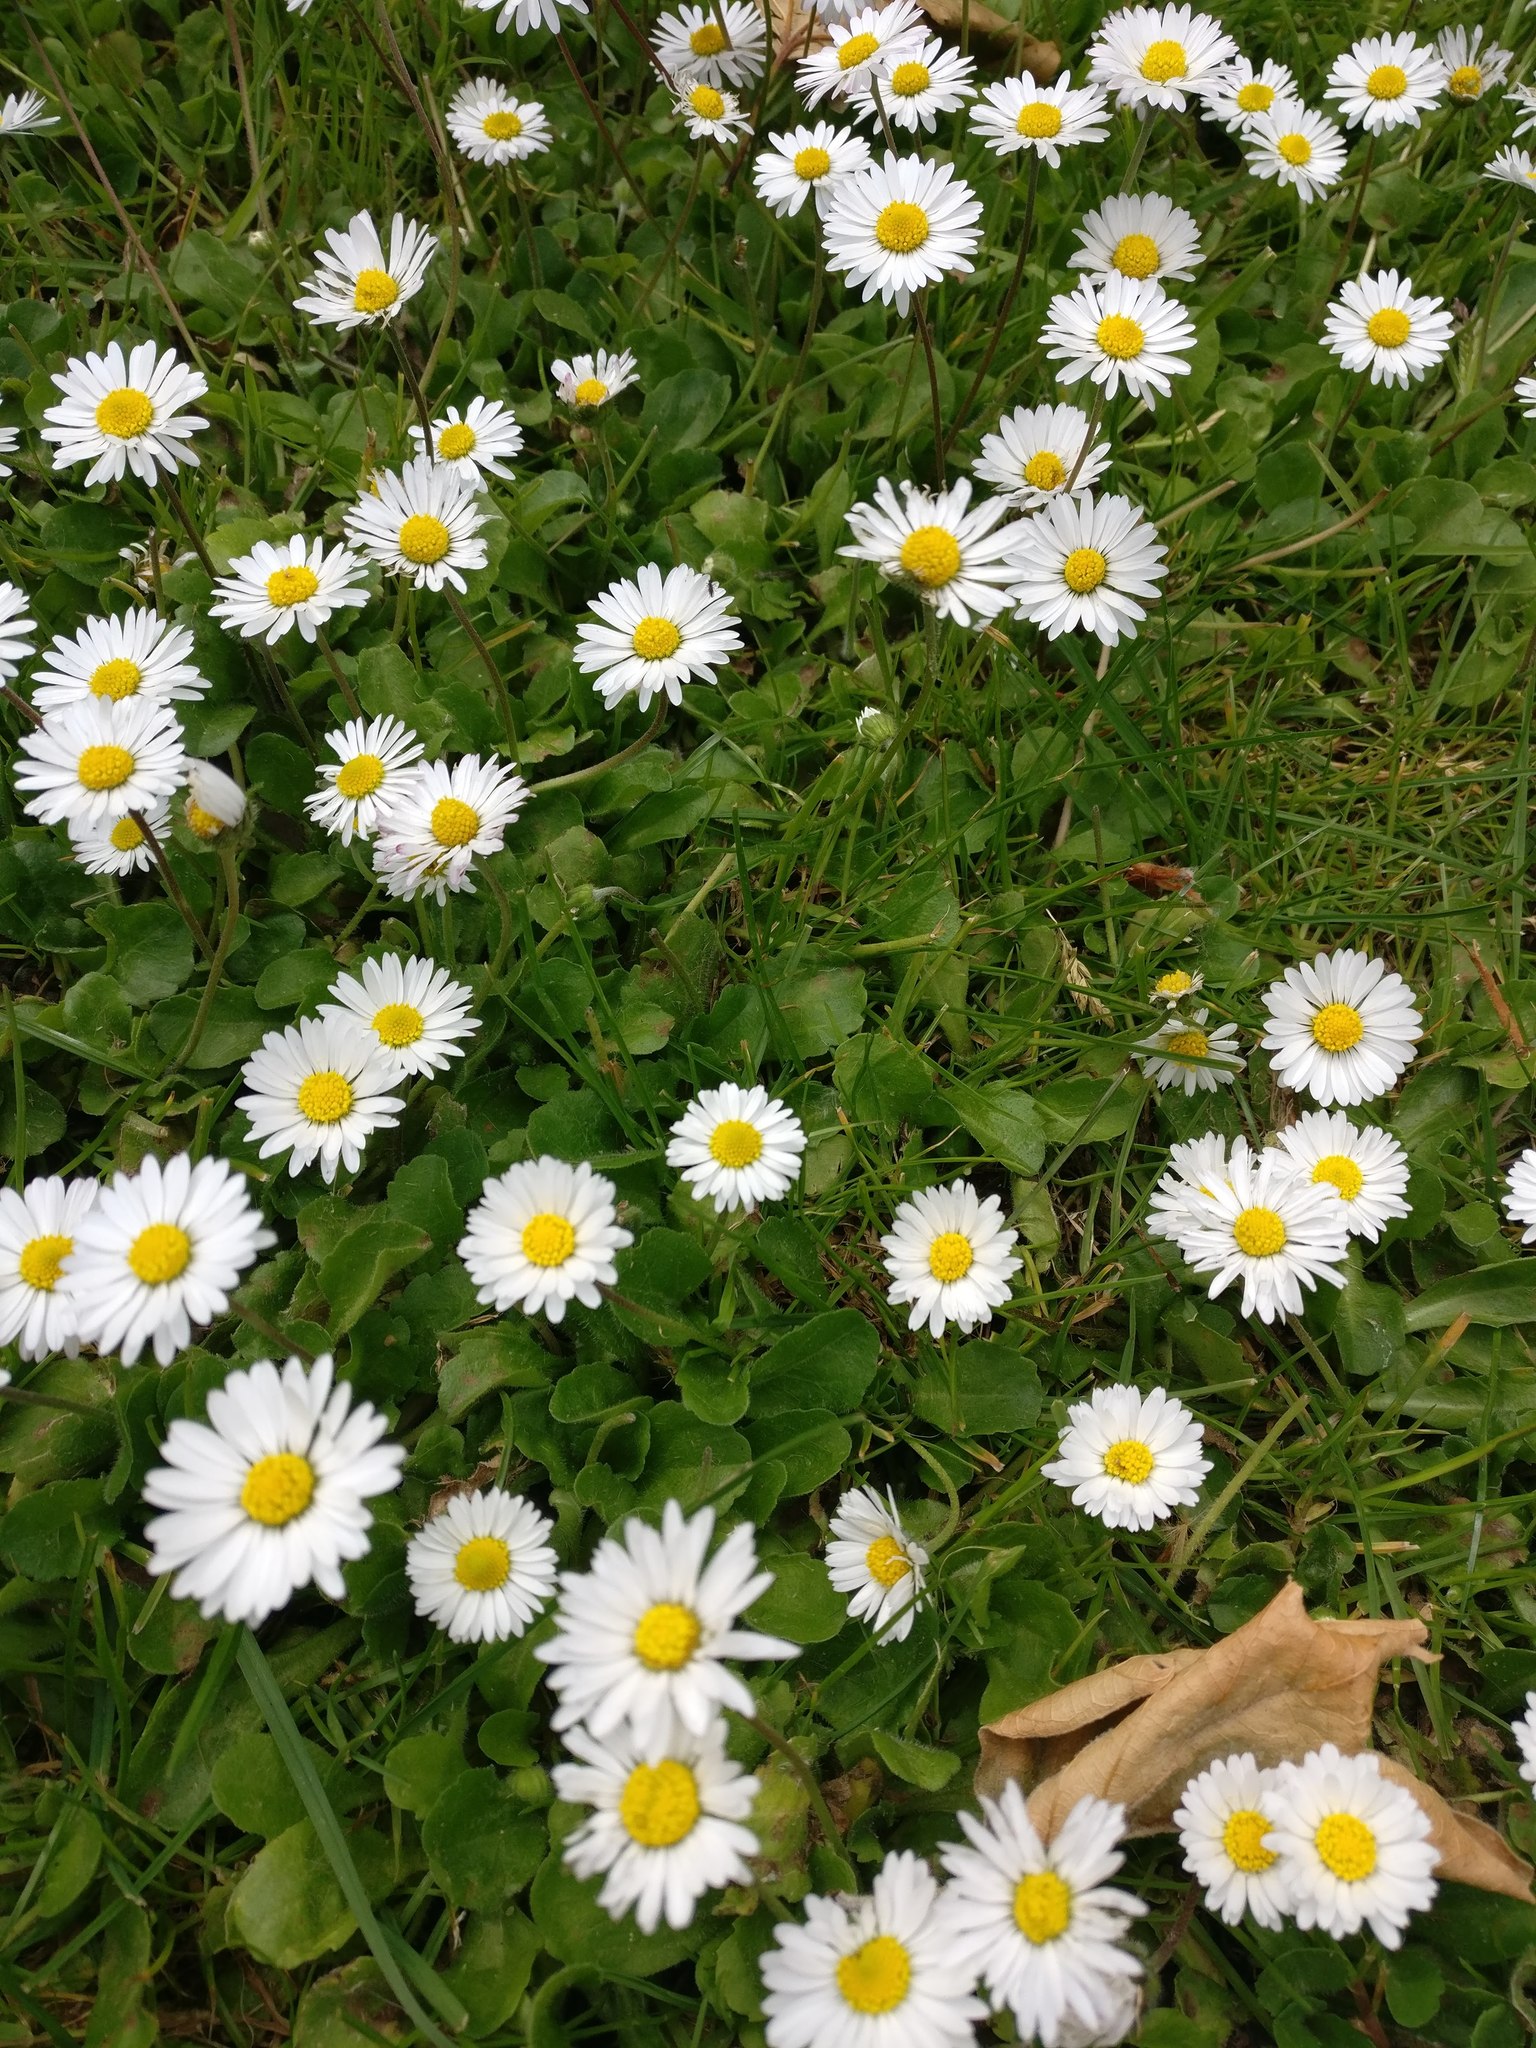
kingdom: Plantae
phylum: Tracheophyta
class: Magnoliopsida
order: Asterales
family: Asteraceae
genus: Bellis
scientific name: Bellis perennis
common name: Lawndaisy
